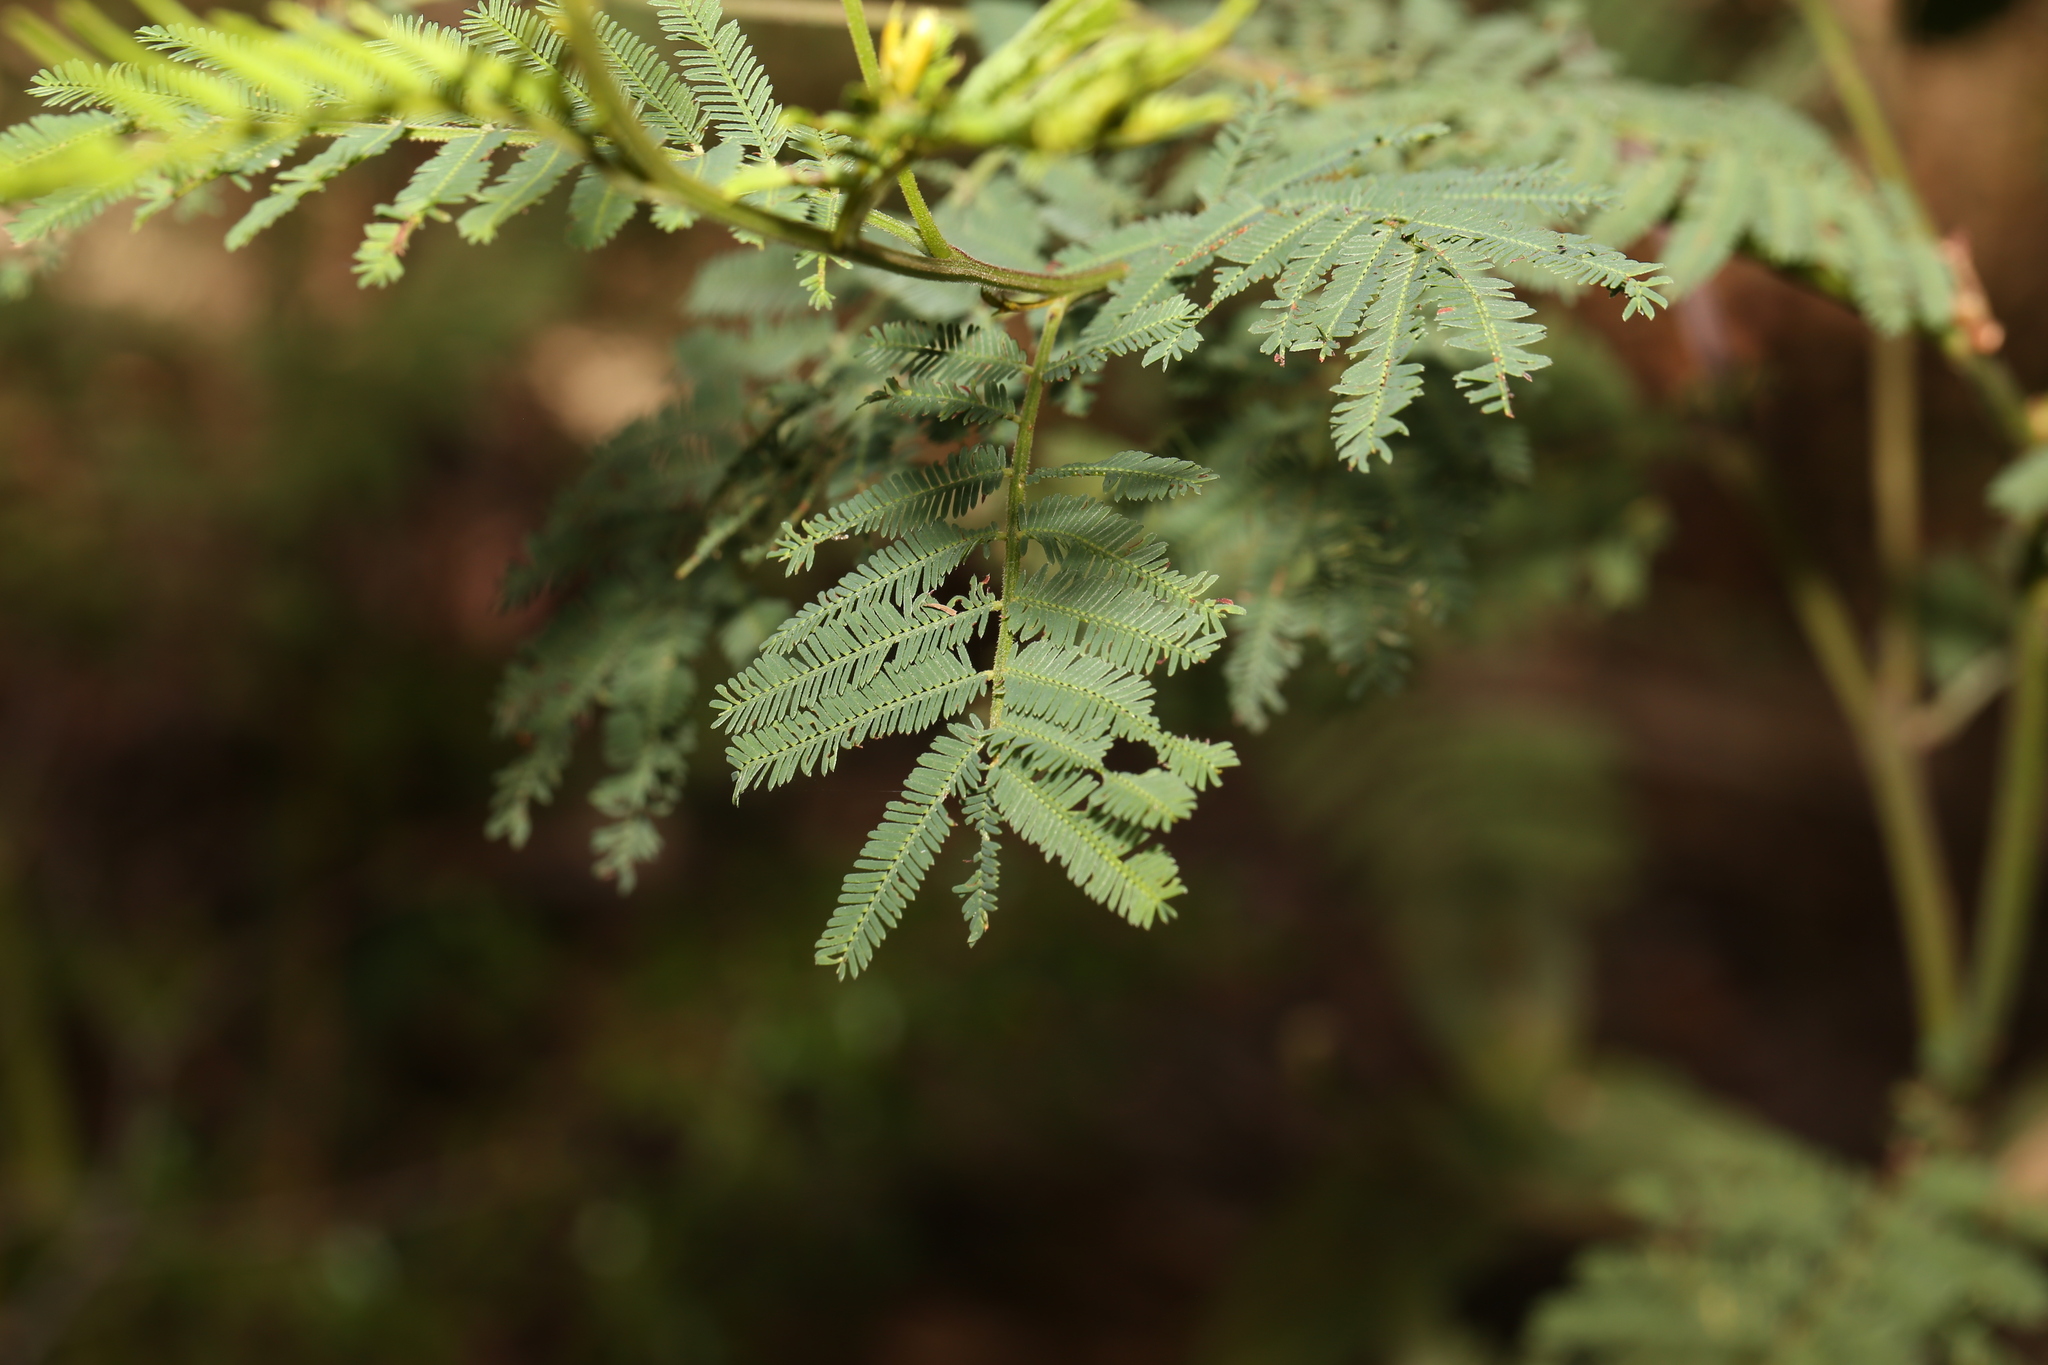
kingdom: Plantae
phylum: Tracheophyta
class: Magnoliopsida
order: Fabales
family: Fabaceae
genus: Acacia
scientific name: Acacia irrorata
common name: Green wattle
